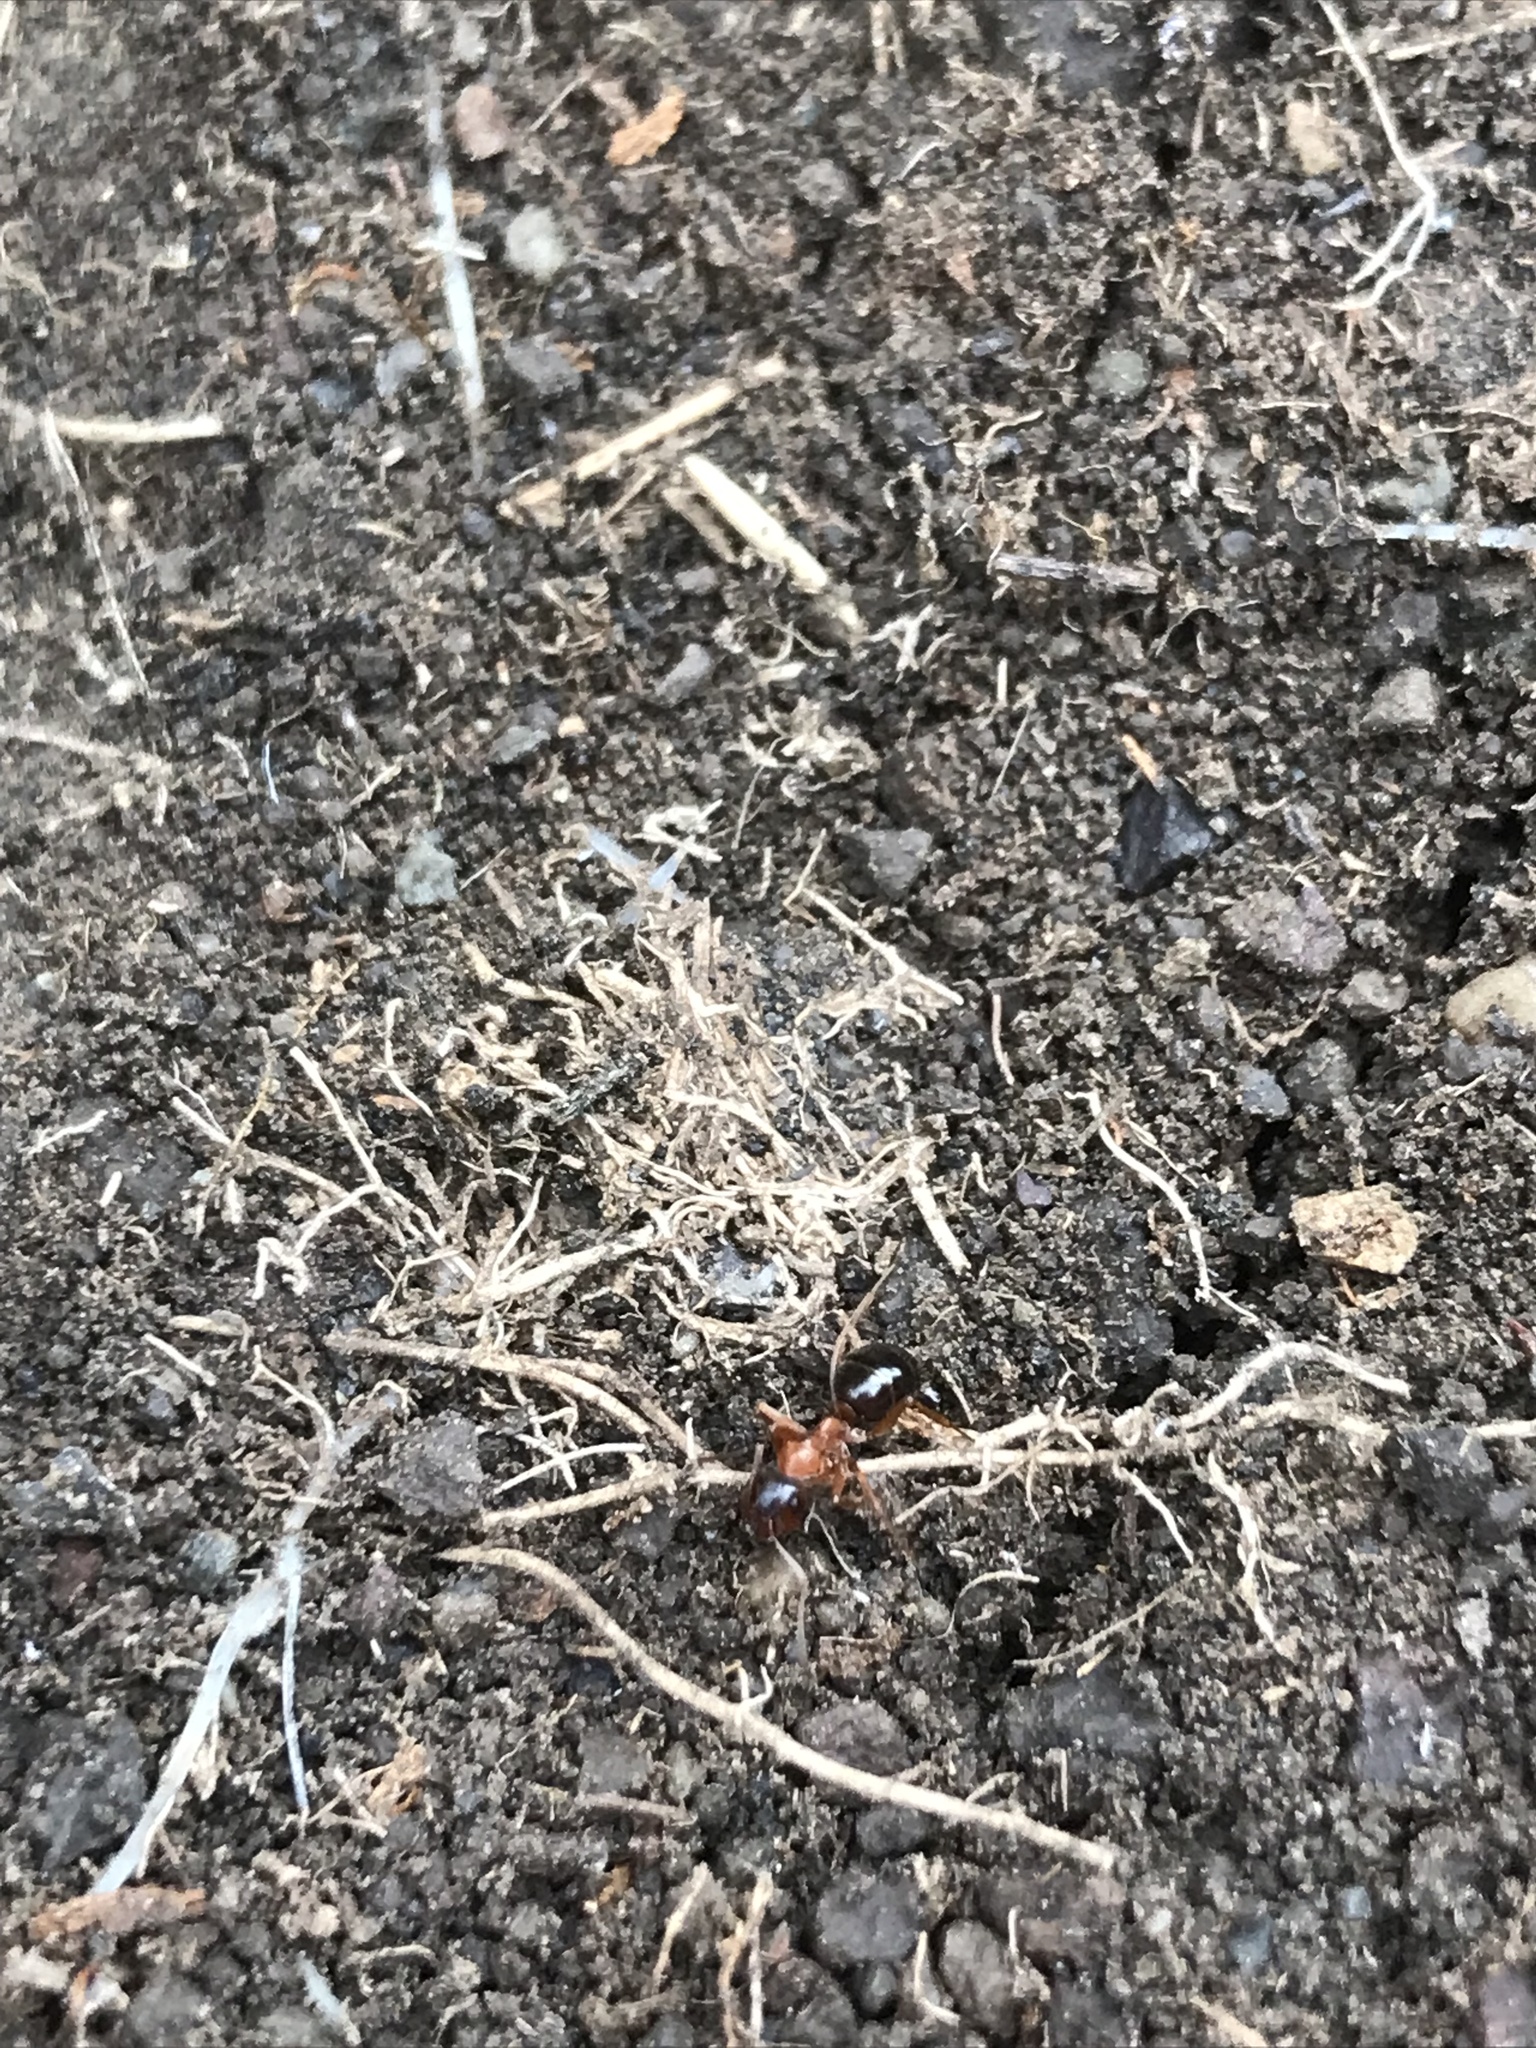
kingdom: Animalia
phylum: Arthropoda
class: Insecta
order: Hymenoptera
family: Formicidae
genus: Formica
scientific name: Formica subpolita
